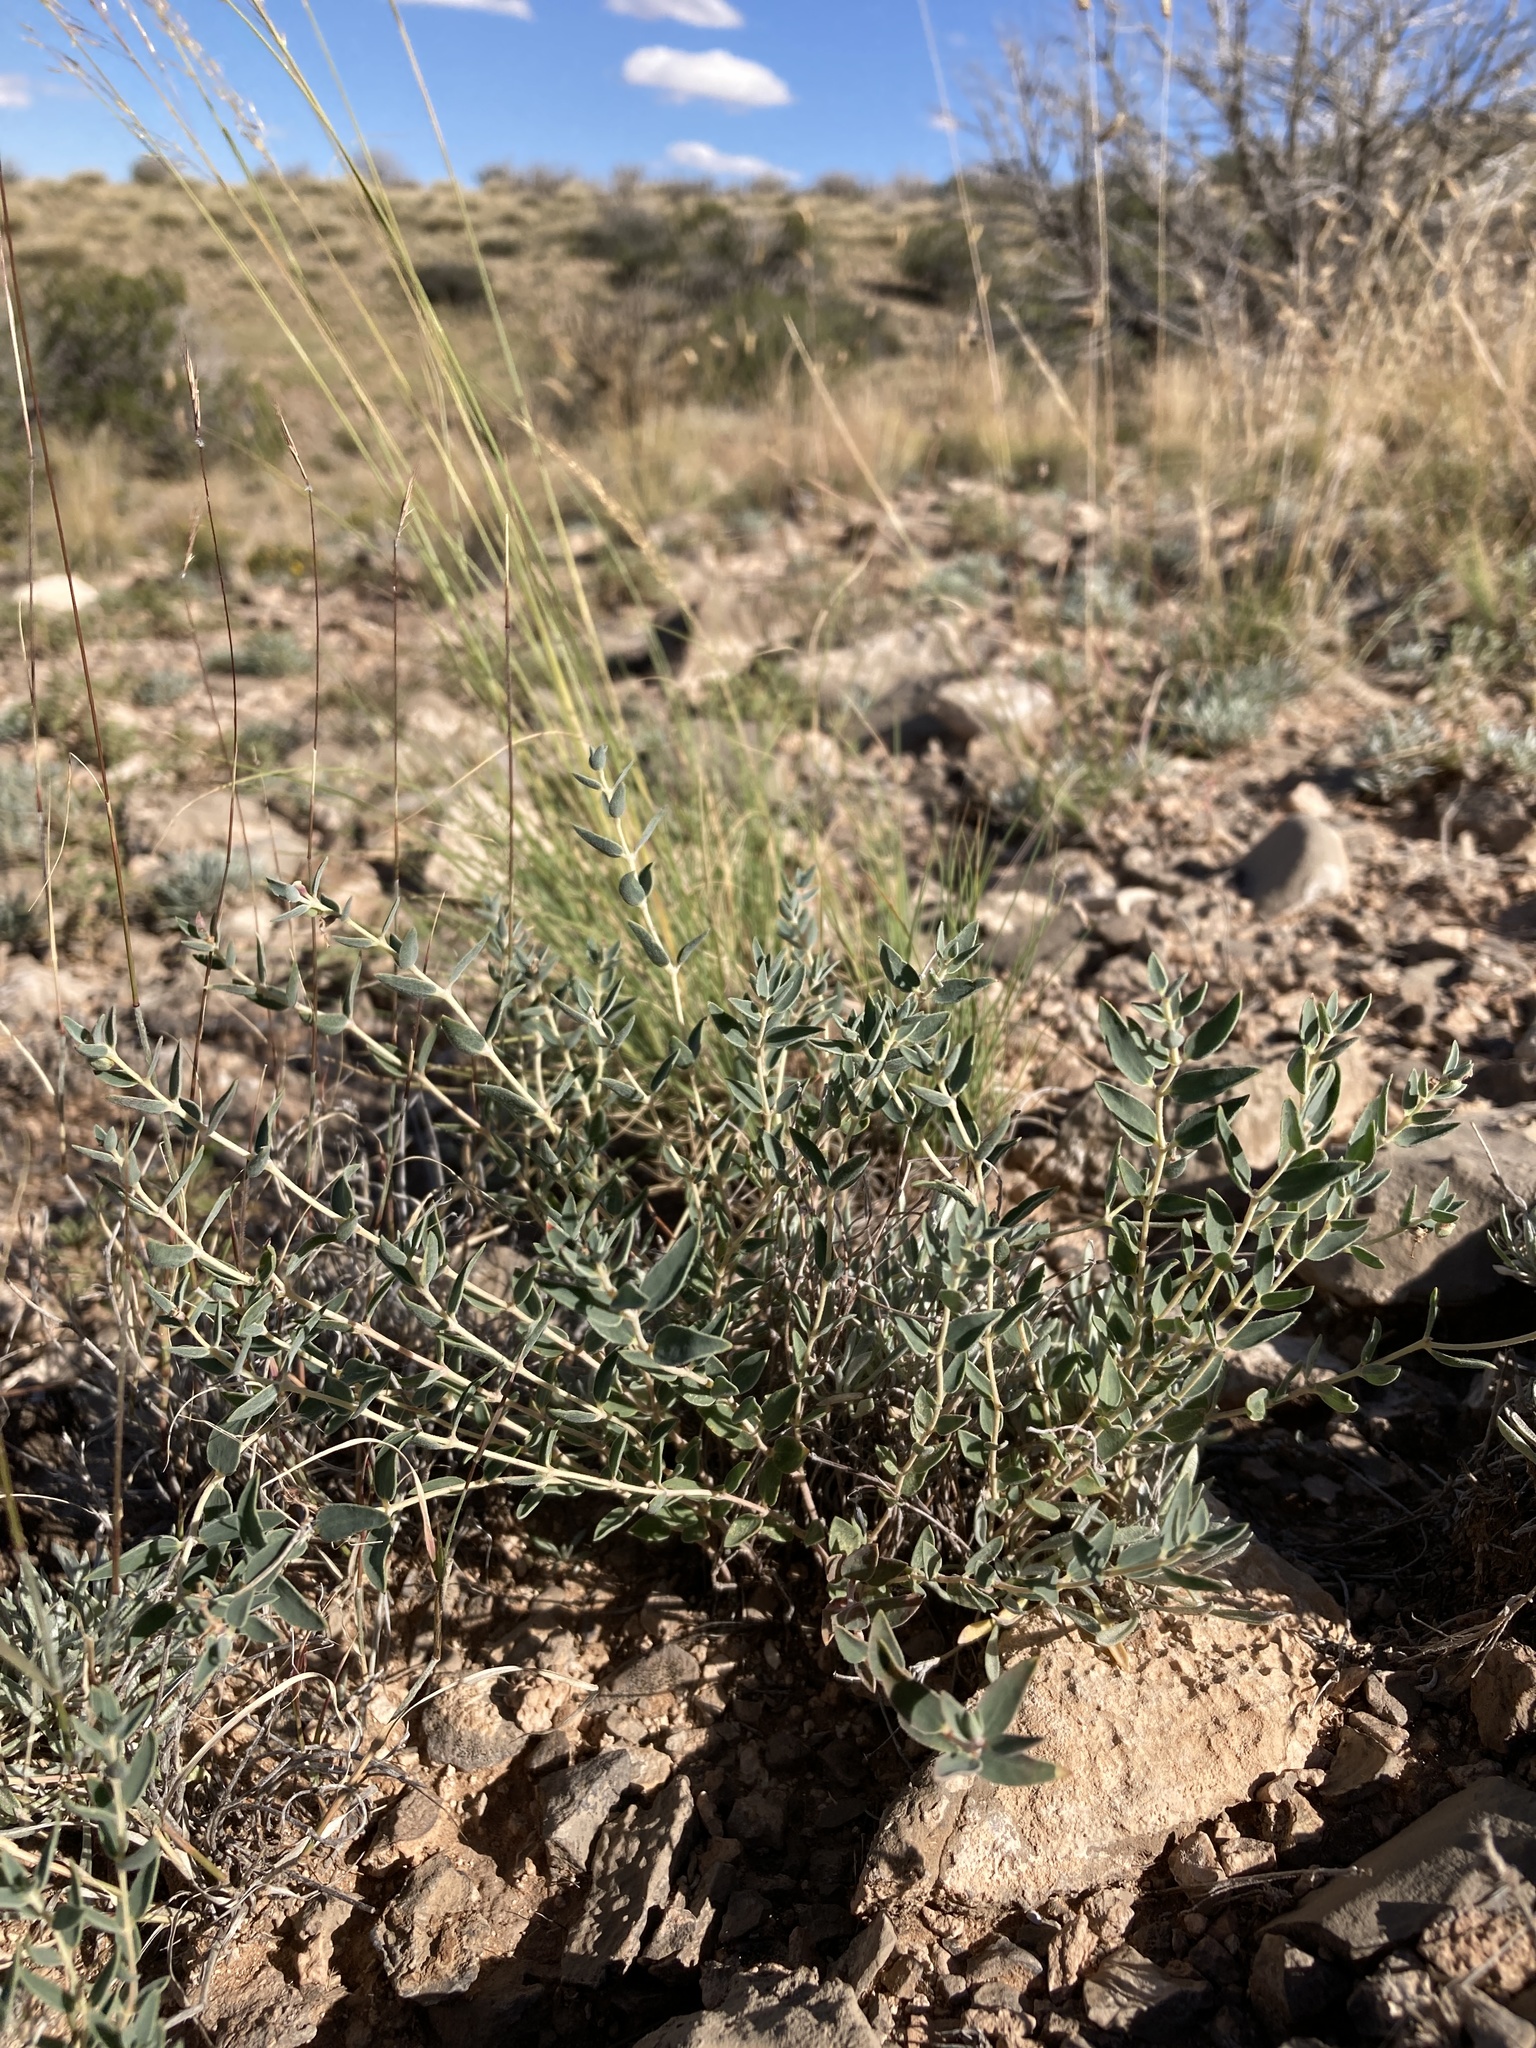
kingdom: Plantae
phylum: Tracheophyta
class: Magnoliopsida
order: Malpighiales
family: Euphorbiaceae
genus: Euphorbia
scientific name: Euphorbia acuta
